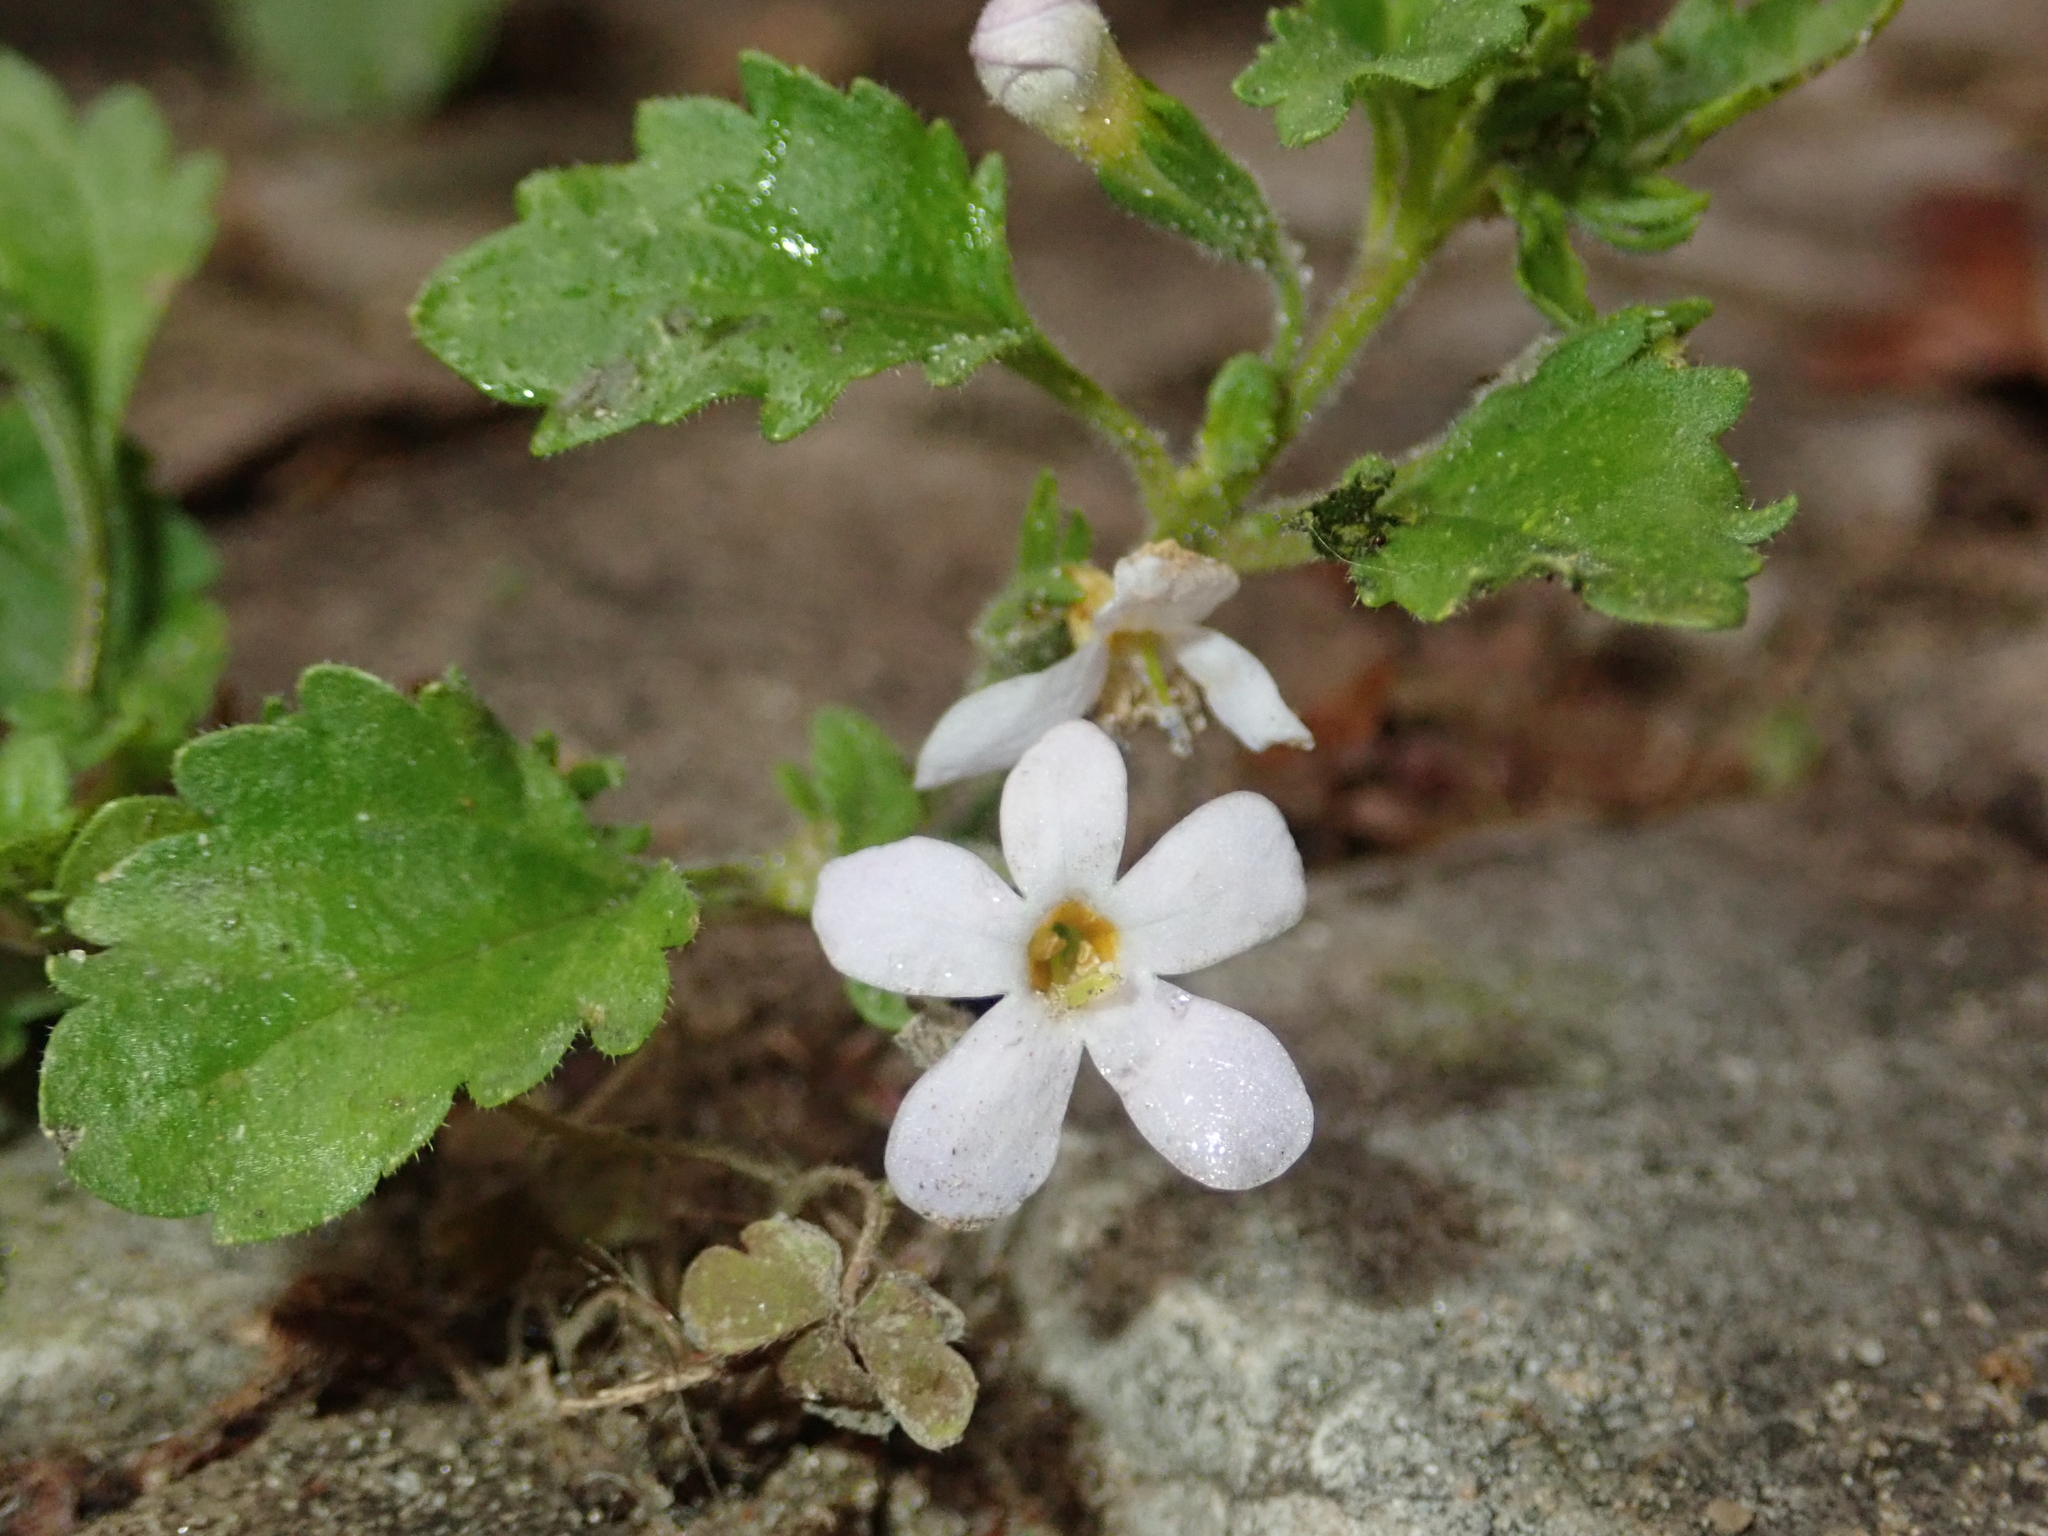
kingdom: Plantae
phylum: Tracheophyta
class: Magnoliopsida
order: Lamiales
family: Scrophulariaceae
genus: Chaenostoma
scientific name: Chaenostoma cordatum
